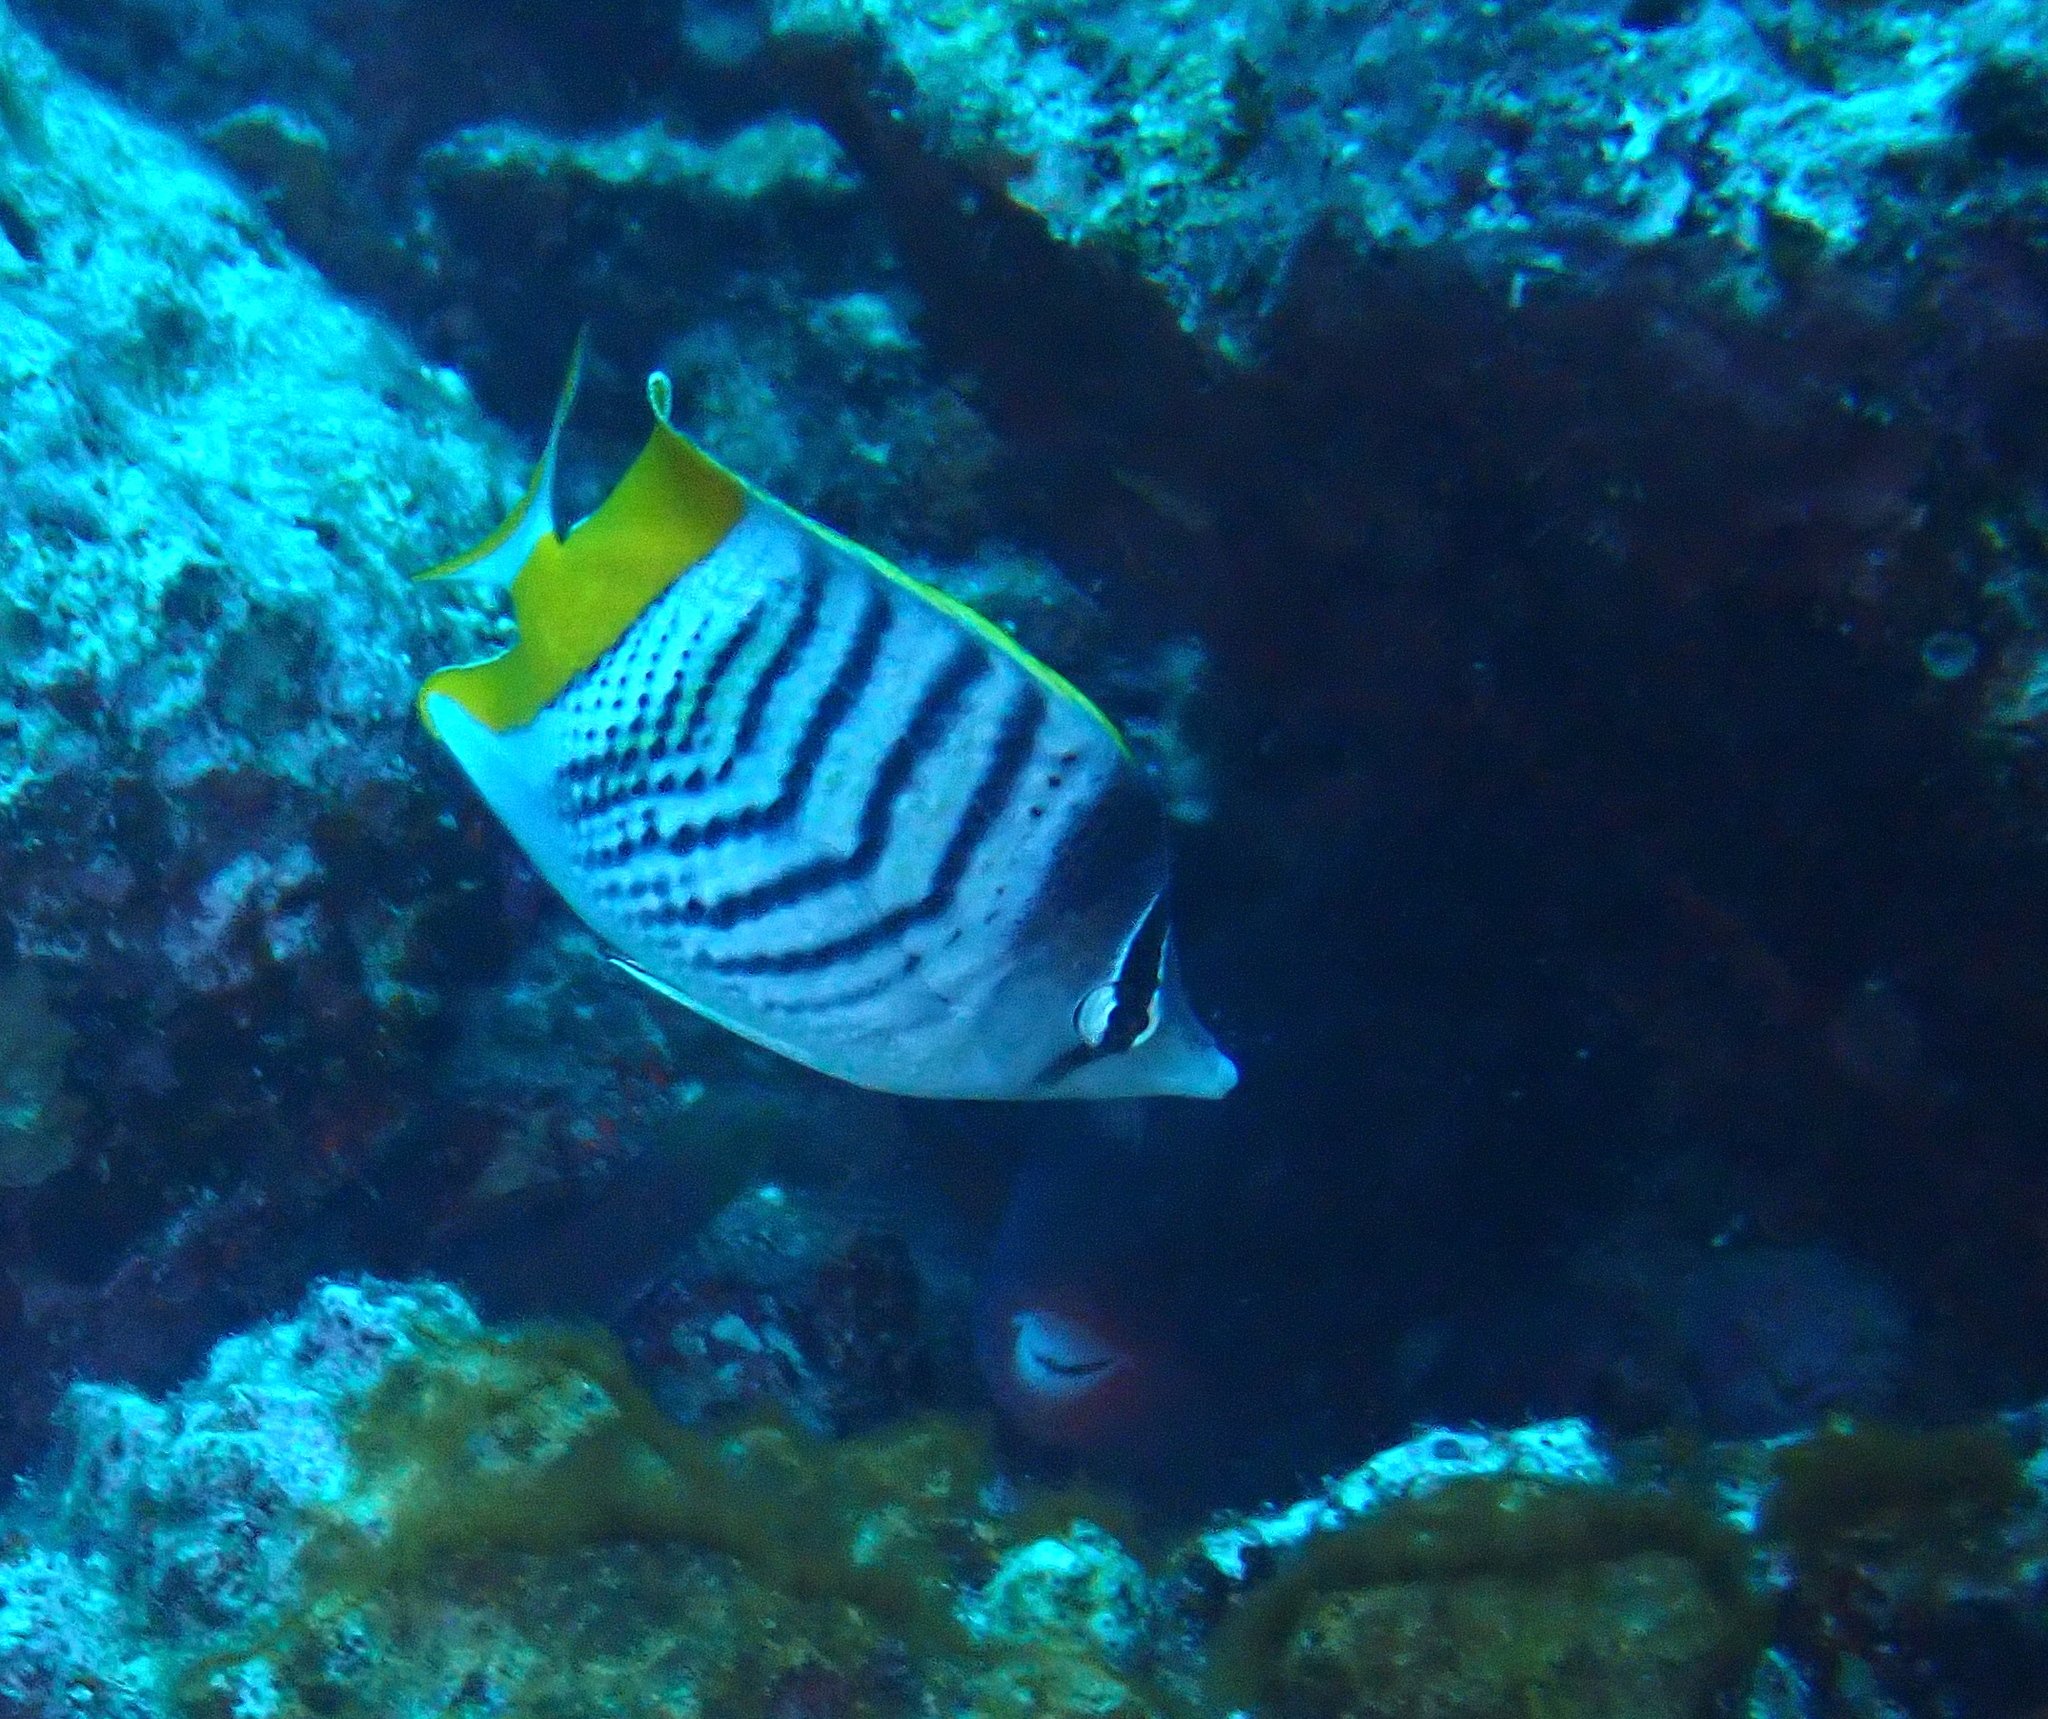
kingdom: Animalia
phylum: Chordata
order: Perciformes
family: Chaetodontidae
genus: Chaetodon
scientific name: Chaetodon mertensii
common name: Merten's butterflyfish
